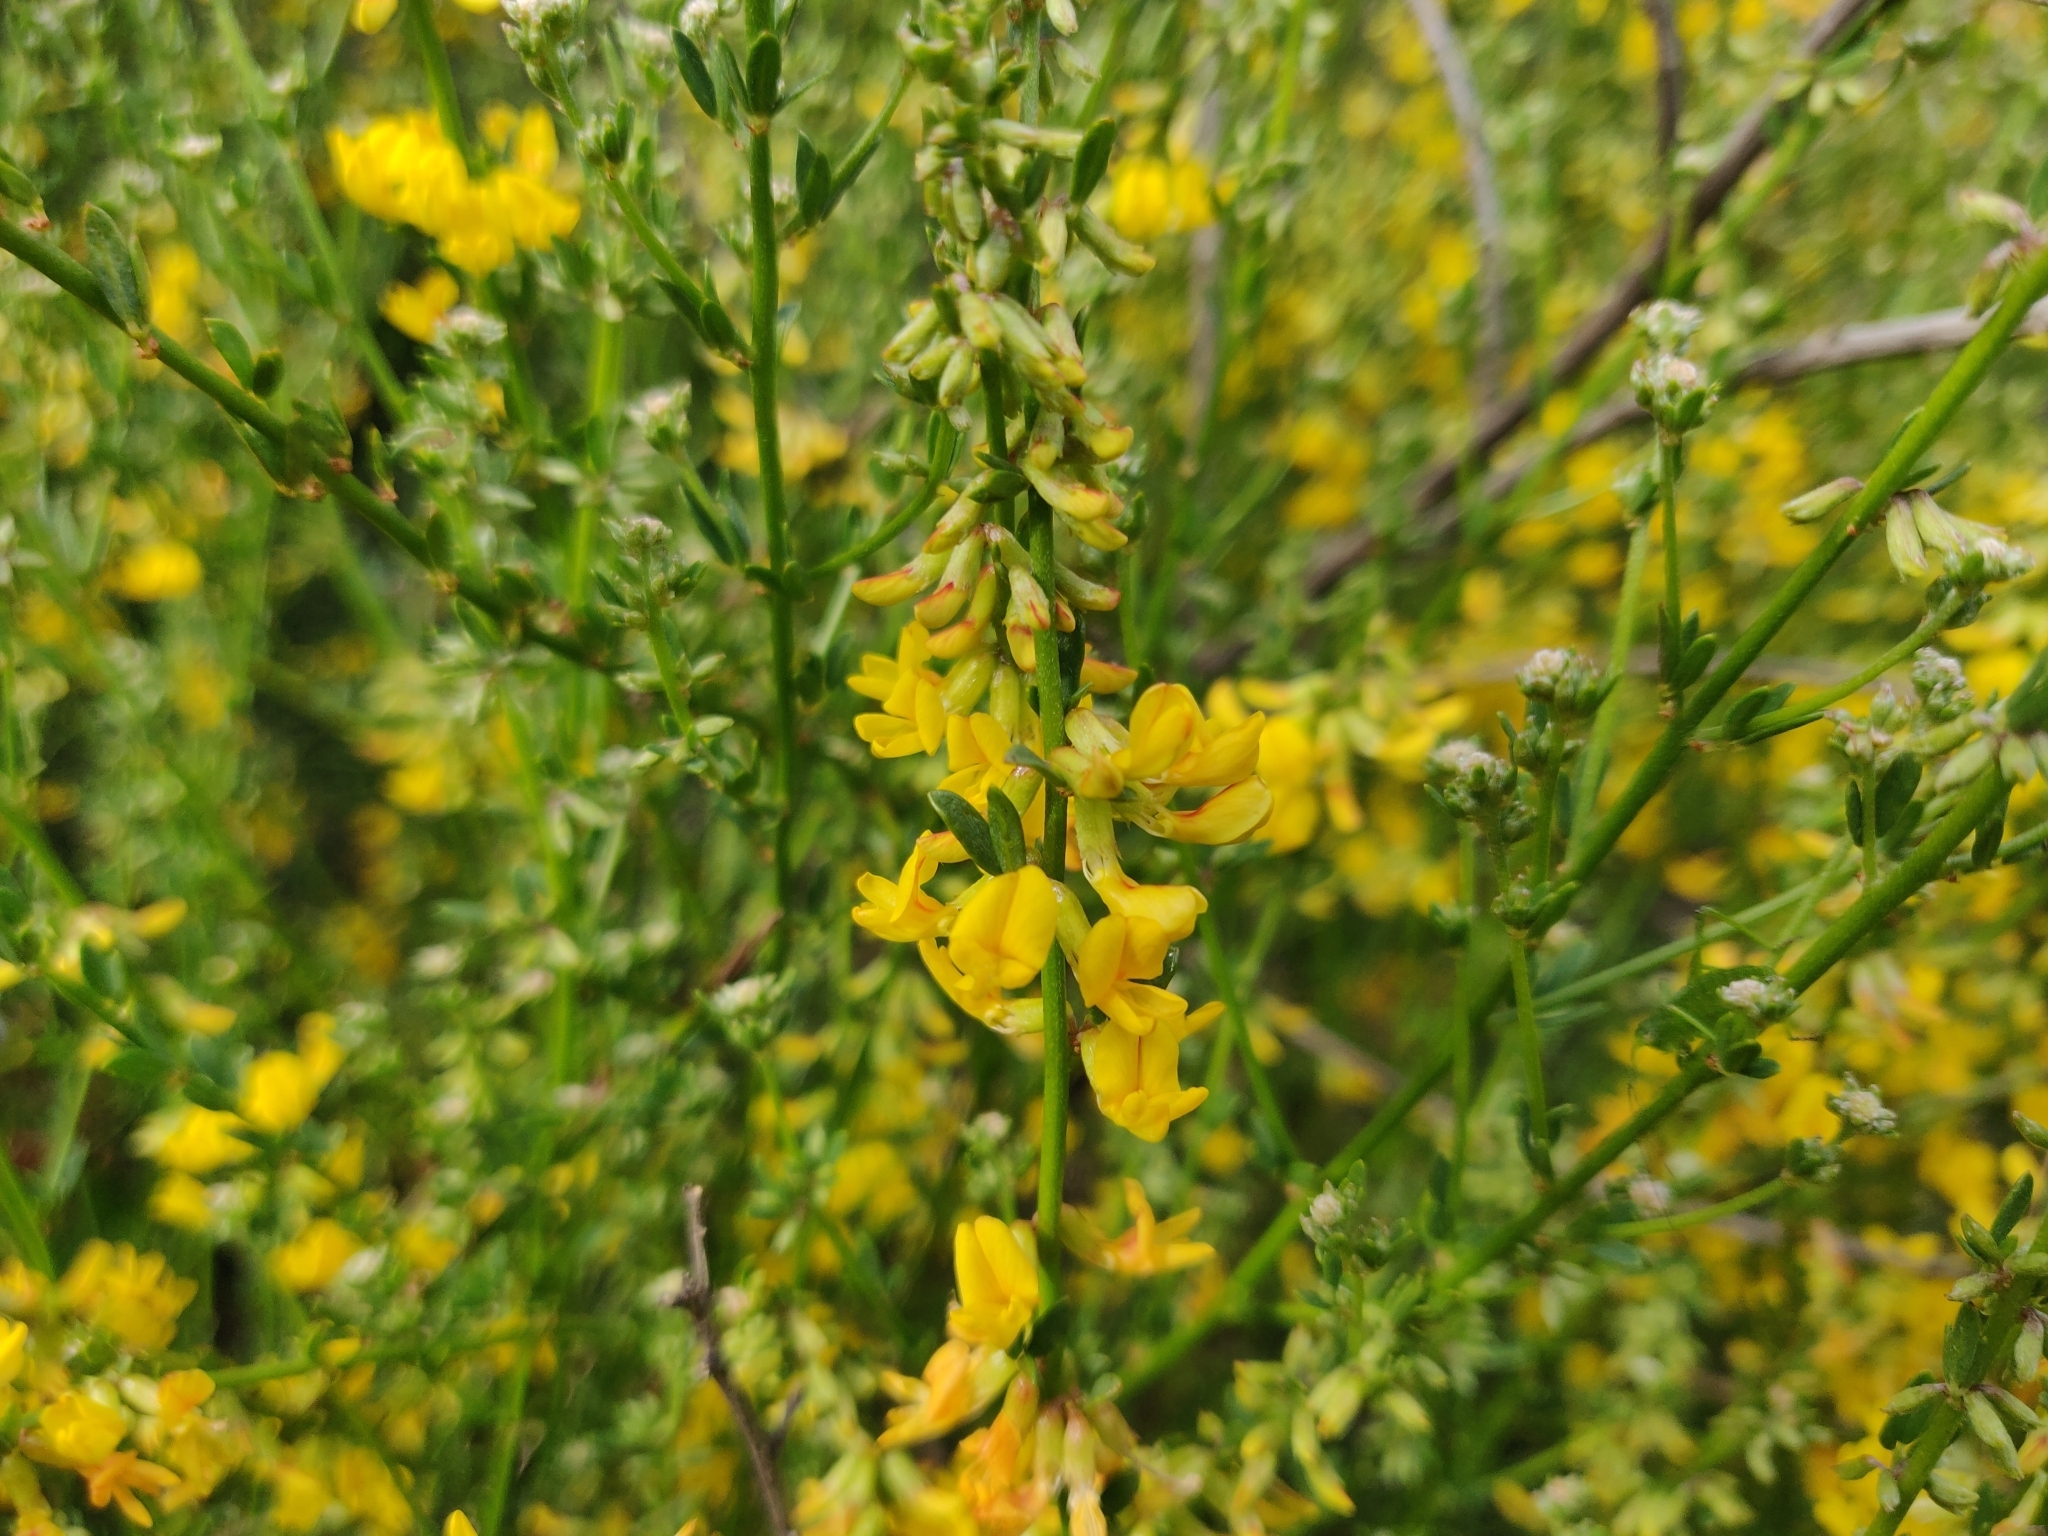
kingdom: Plantae
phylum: Tracheophyta
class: Magnoliopsida
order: Fabales
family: Fabaceae
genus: Acmispon
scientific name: Acmispon glaber
